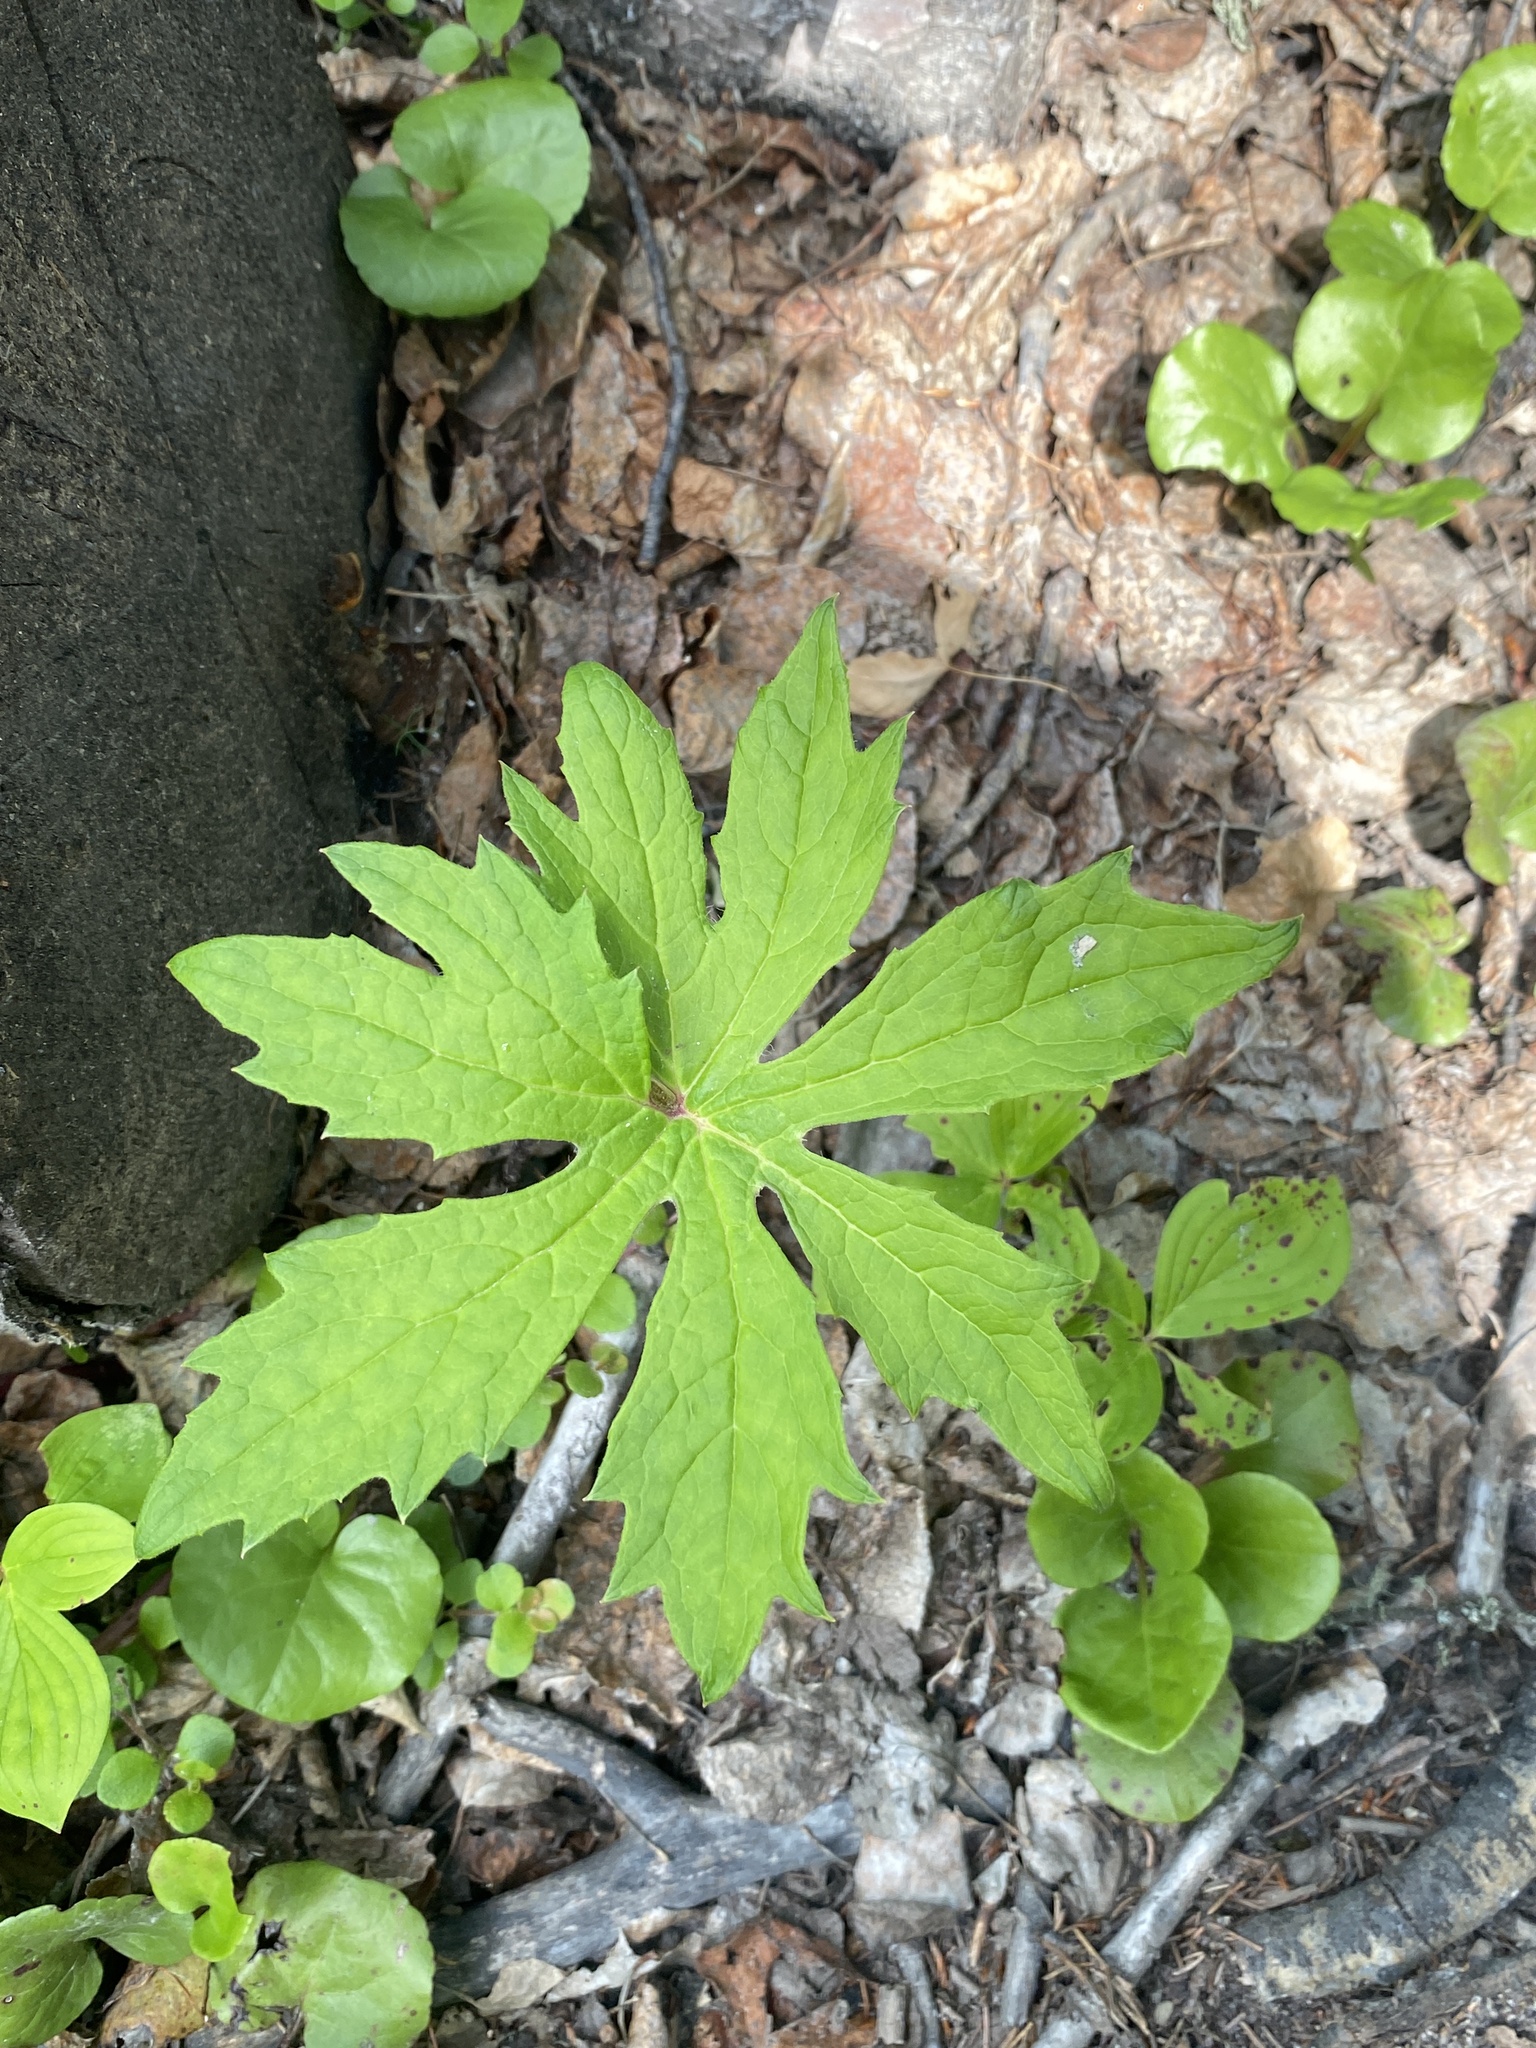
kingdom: Plantae
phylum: Tracheophyta
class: Magnoliopsida
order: Asterales
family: Asteraceae
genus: Petasites
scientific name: Petasites frigidus
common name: Arctic butterbur
